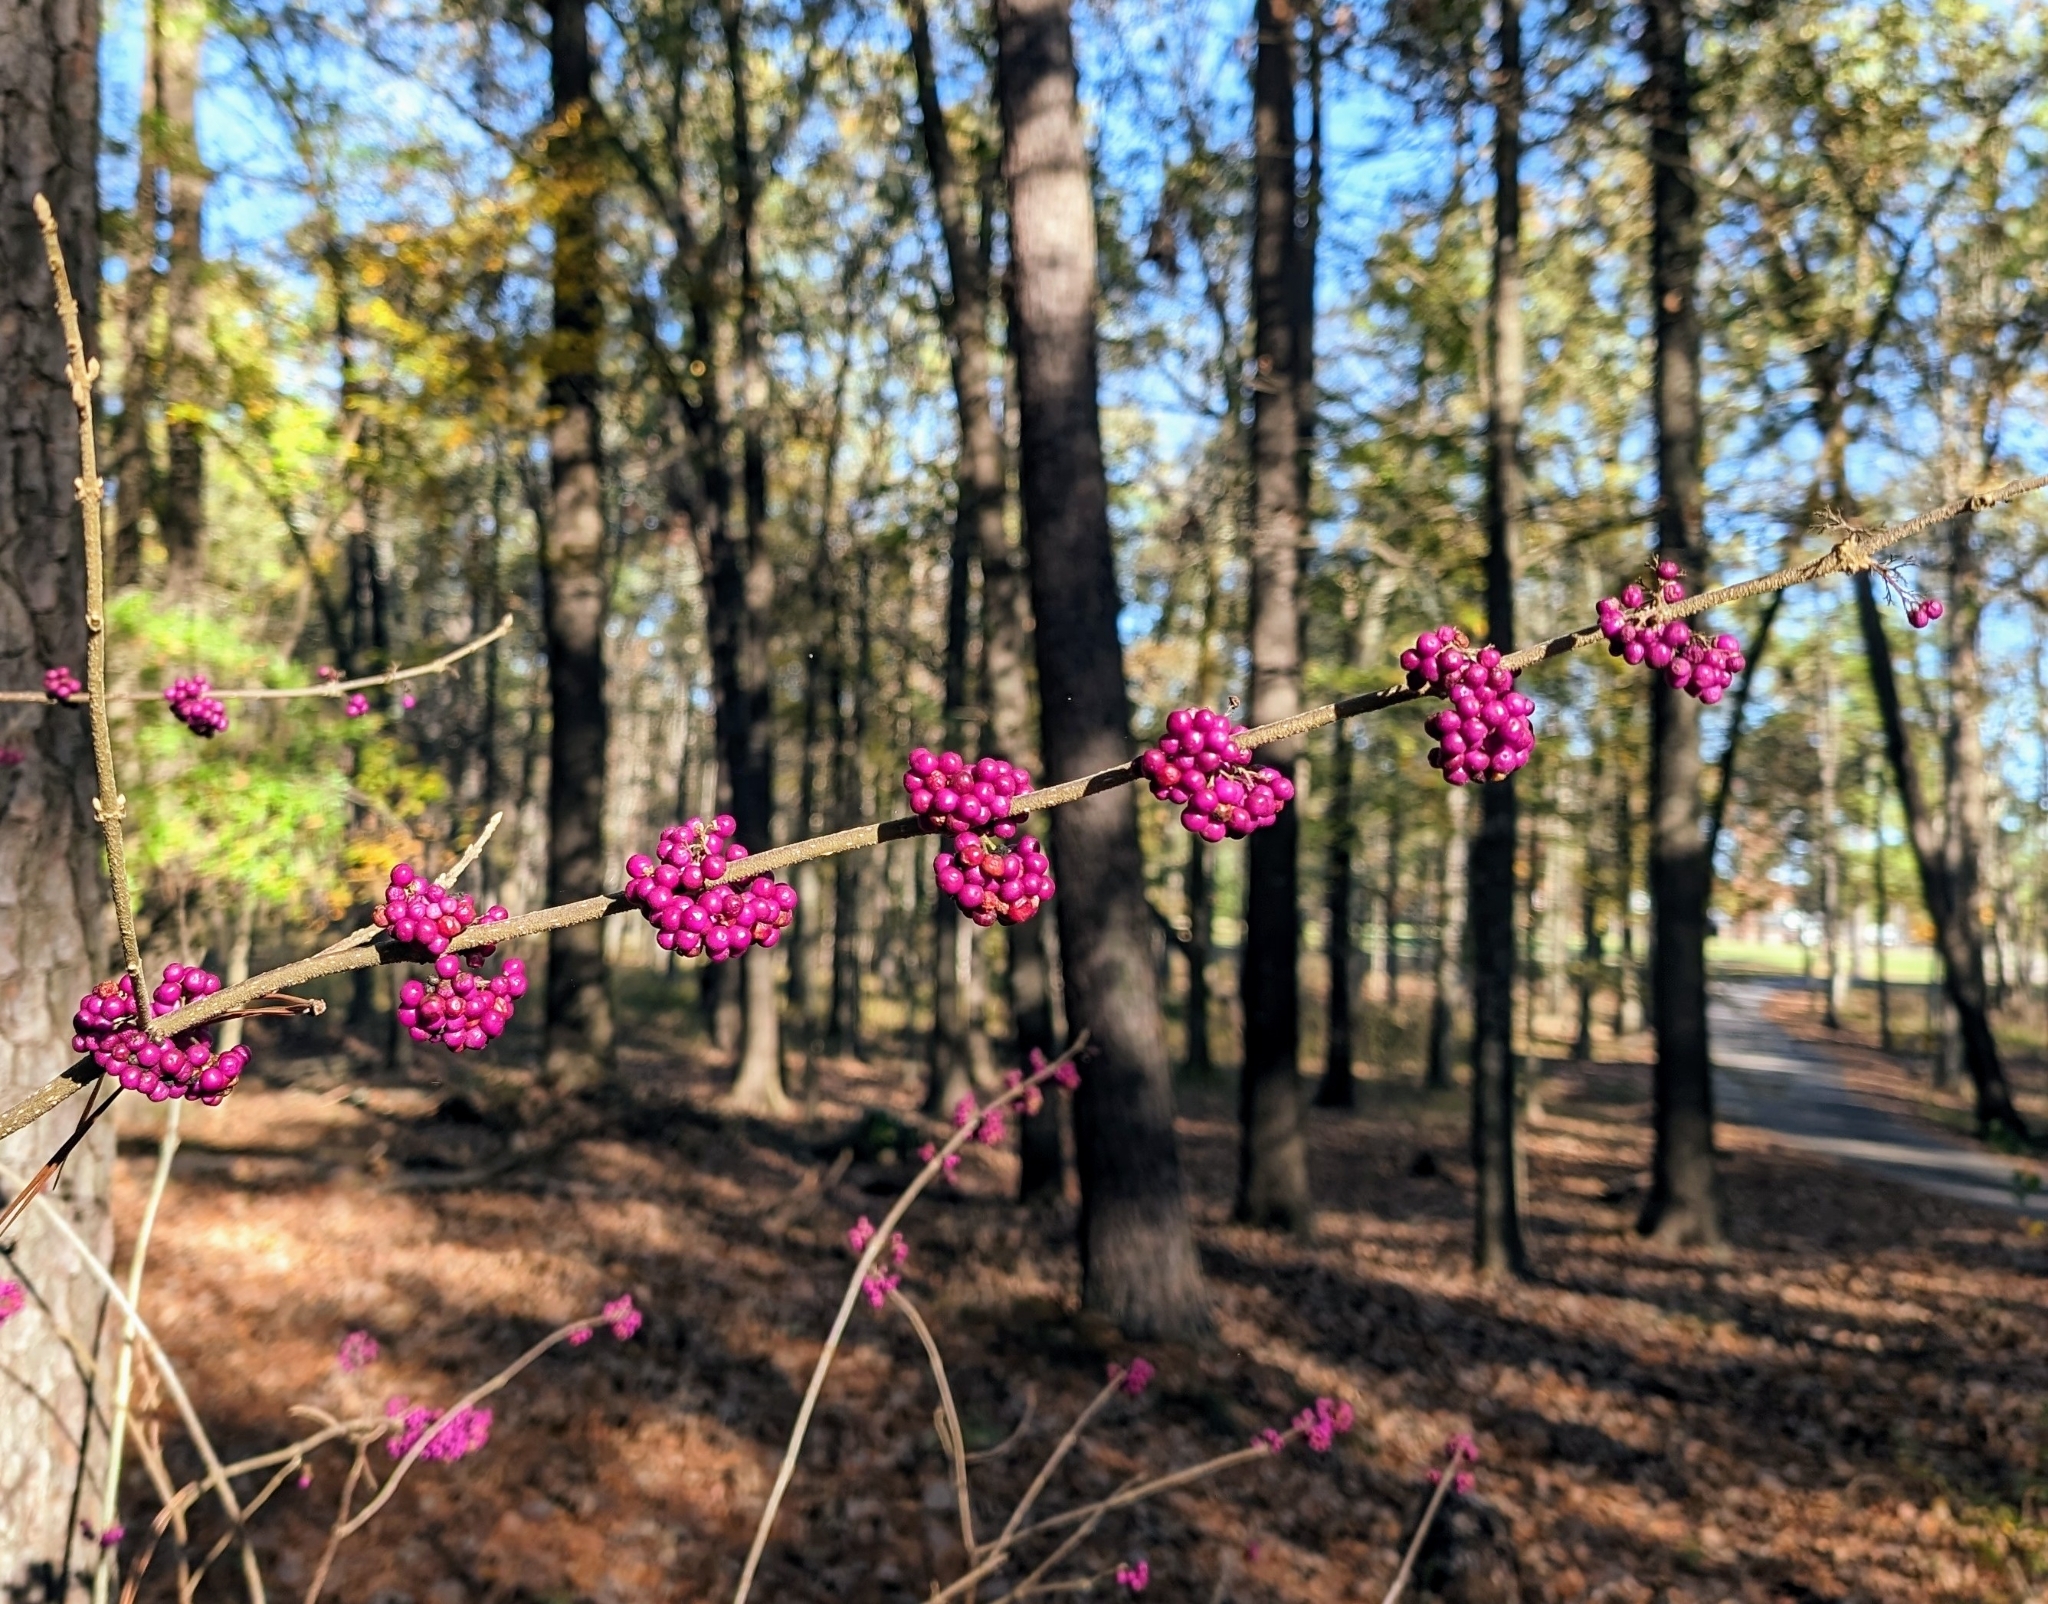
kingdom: Plantae
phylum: Tracheophyta
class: Magnoliopsida
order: Lamiales
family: Lamiaceae
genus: Callicarpa
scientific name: Callicarpa americana
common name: American beautyberry
